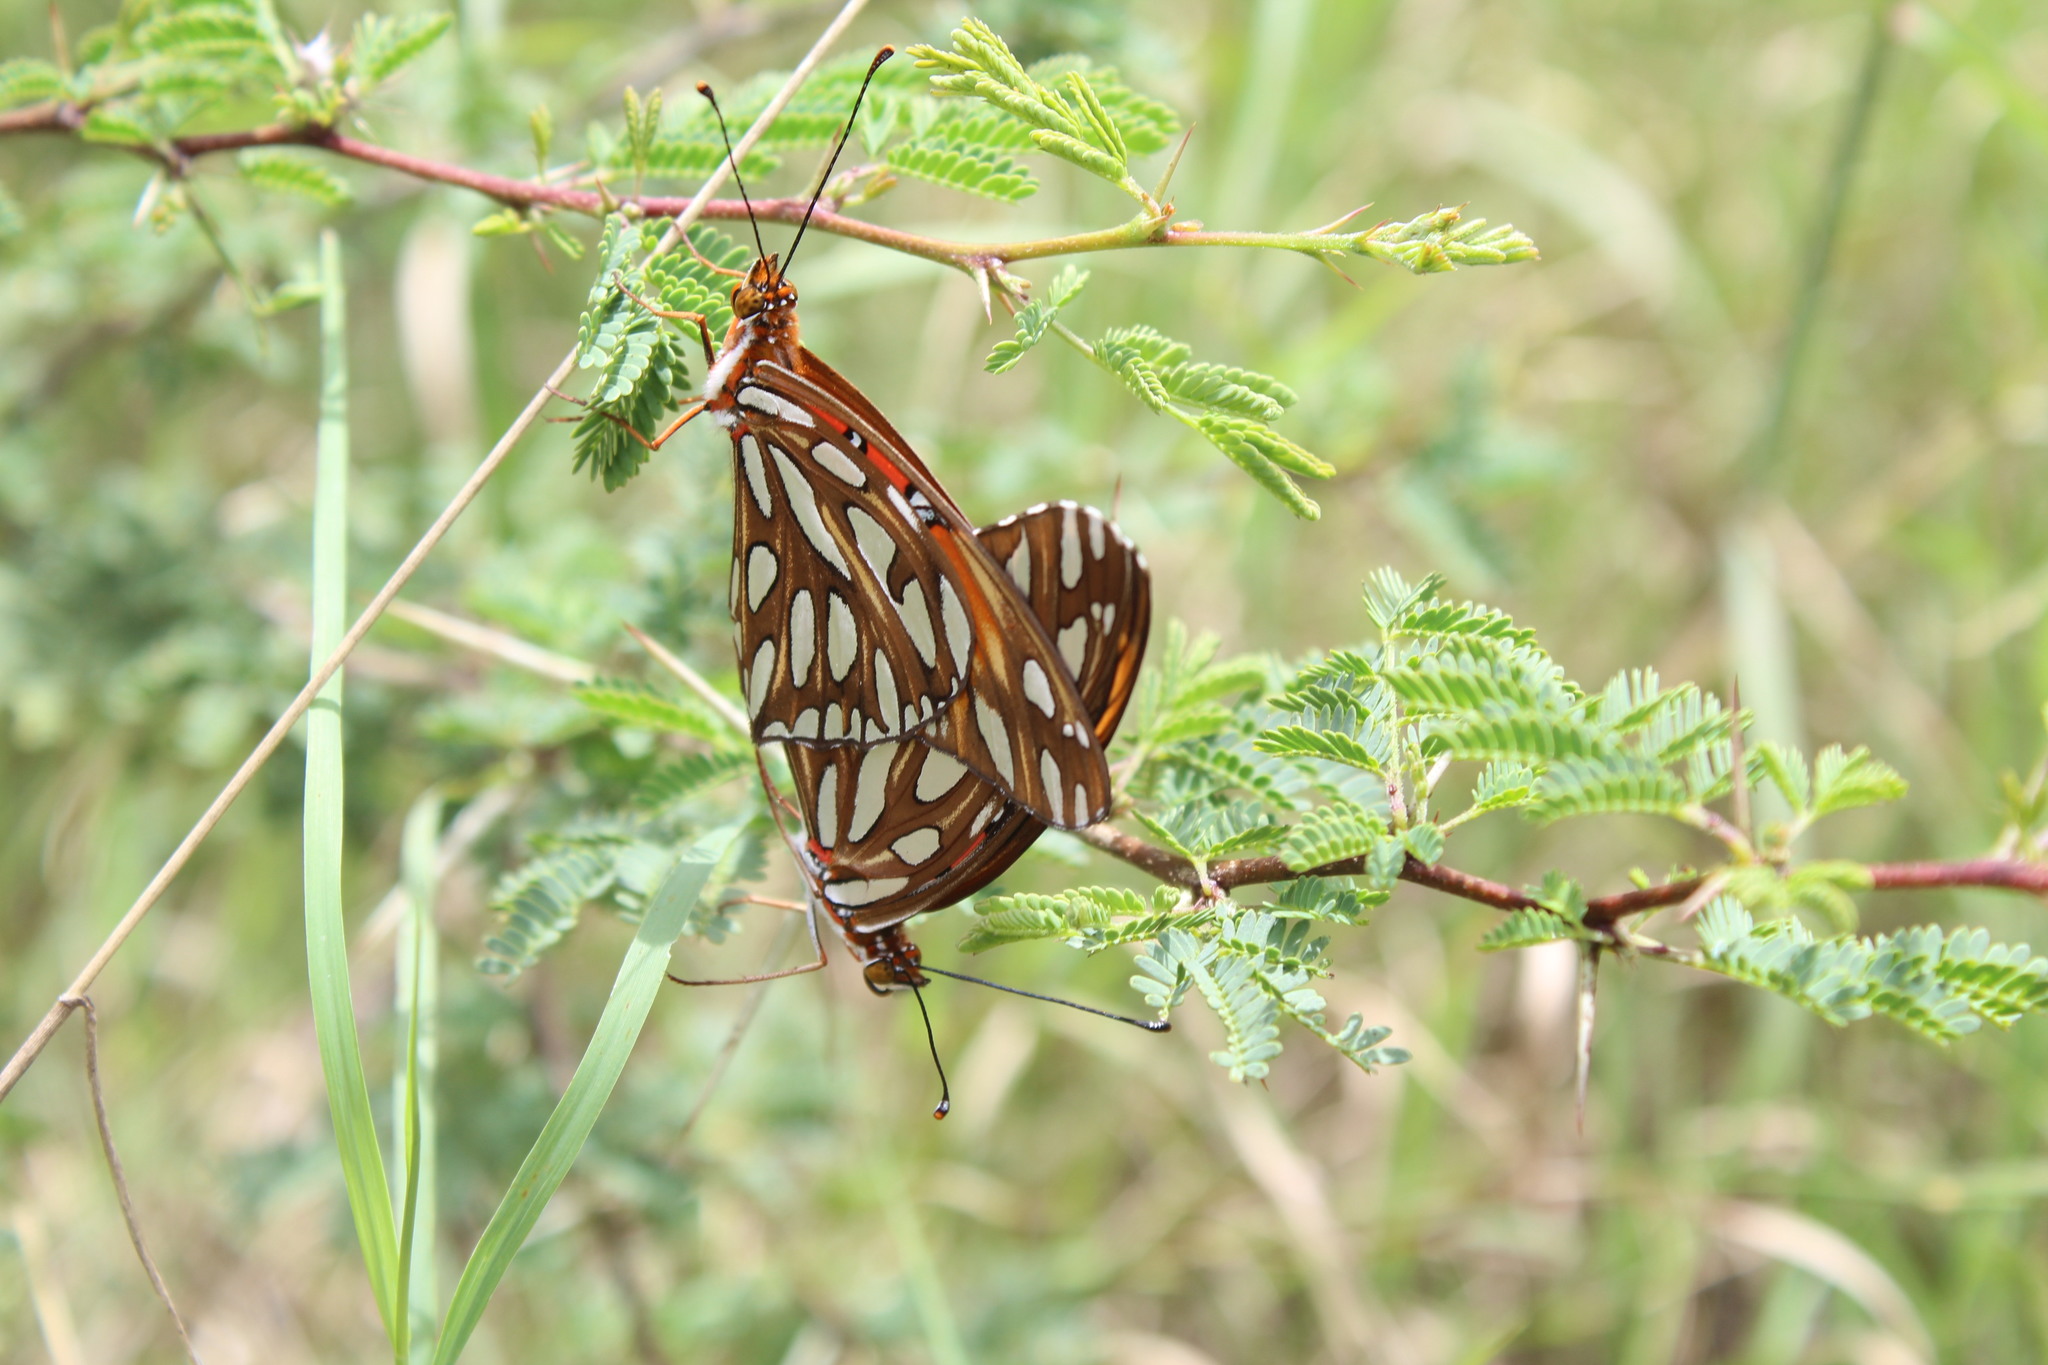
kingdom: Animalia
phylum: Arthropoda
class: Insecta
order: Lepidoptera
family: Nymphalidae
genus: Dione
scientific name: Dione vanillae
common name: Gulf fritillary
